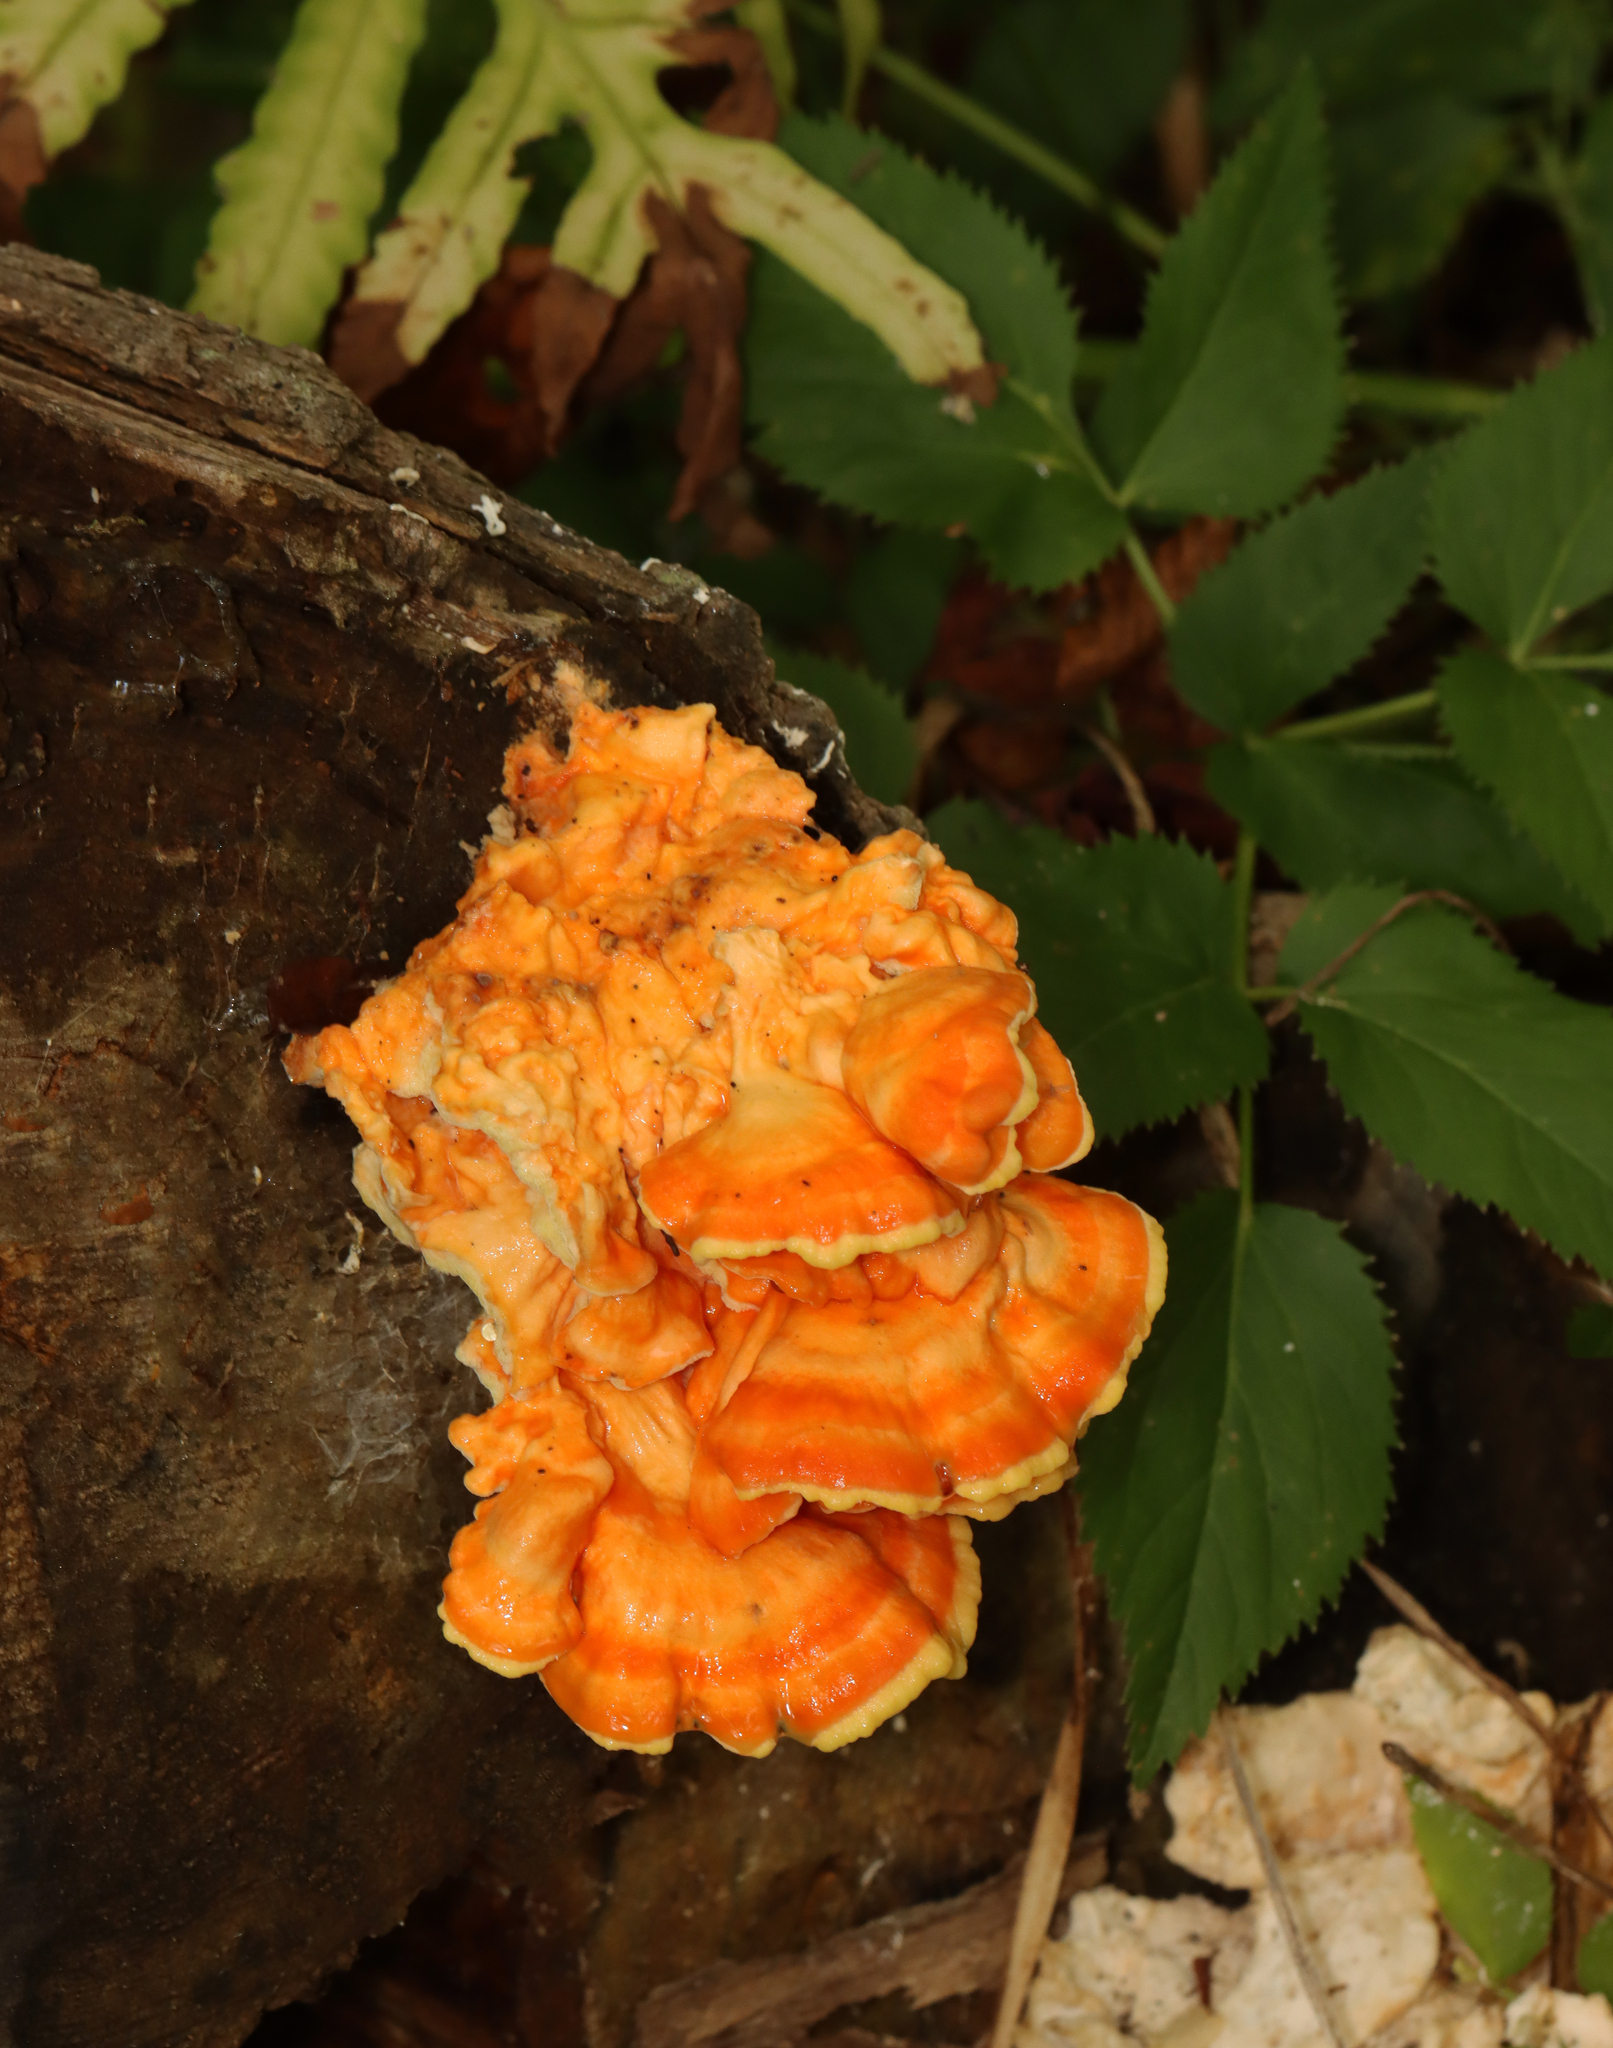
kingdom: Fungi
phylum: Basidiomycota
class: Agaricomycetes
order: Polyporales
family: Laetiporaceae
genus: Laetiporus
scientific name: Laetiporus sulphureus
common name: Chicken of the woods
